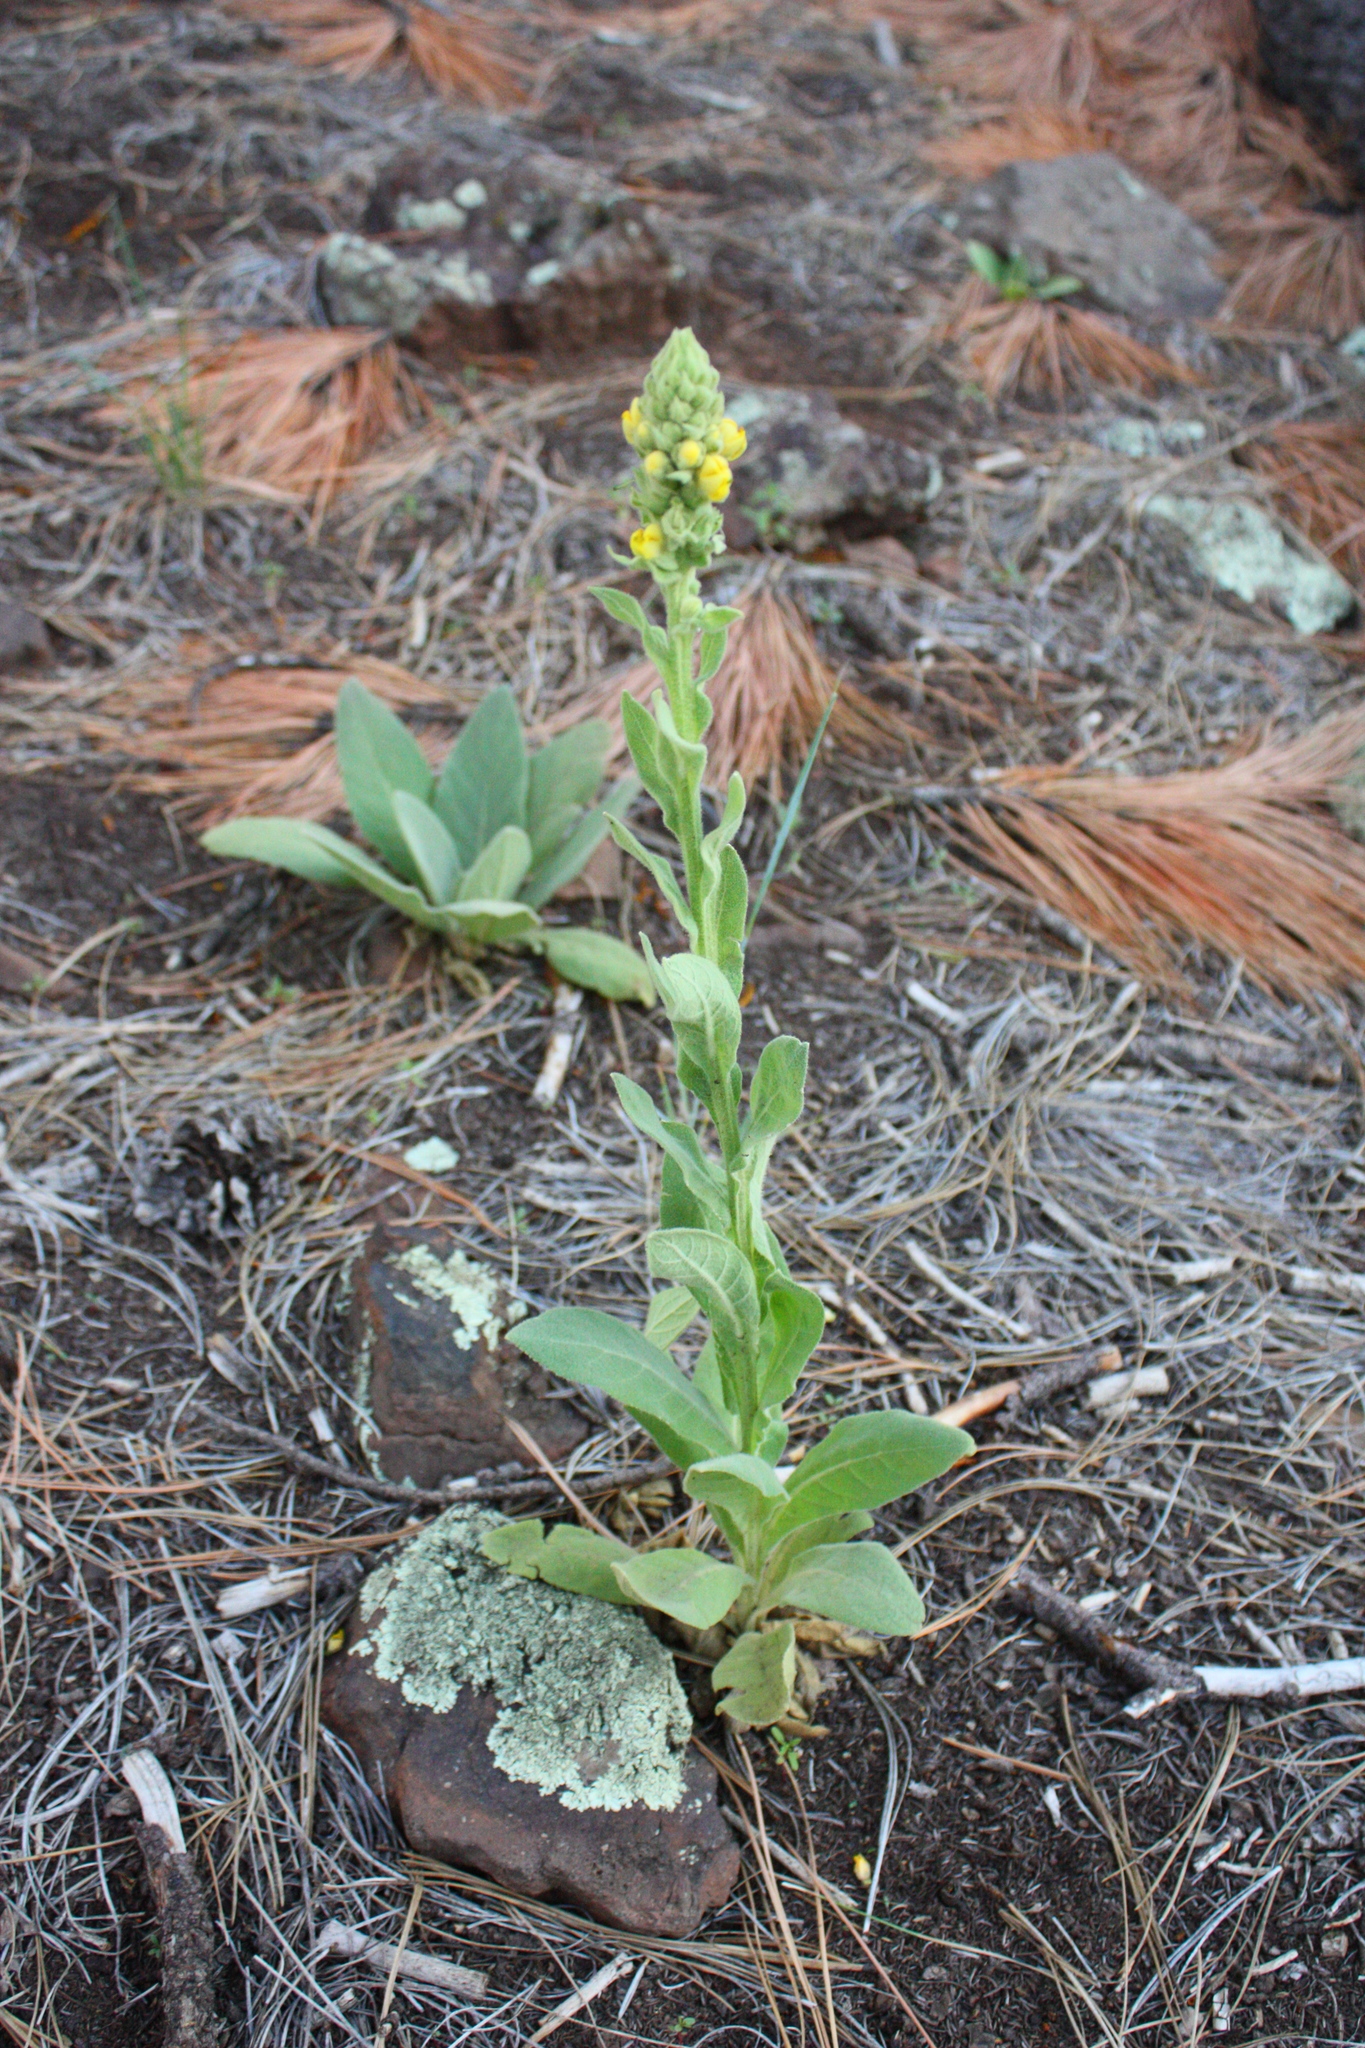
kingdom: Plantae
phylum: Tracheophyta
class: Magnoliopsida
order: Lamiales
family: Scrophulariaceae
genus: Verbascum
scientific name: Verbascum thapsus
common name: Common mullein
